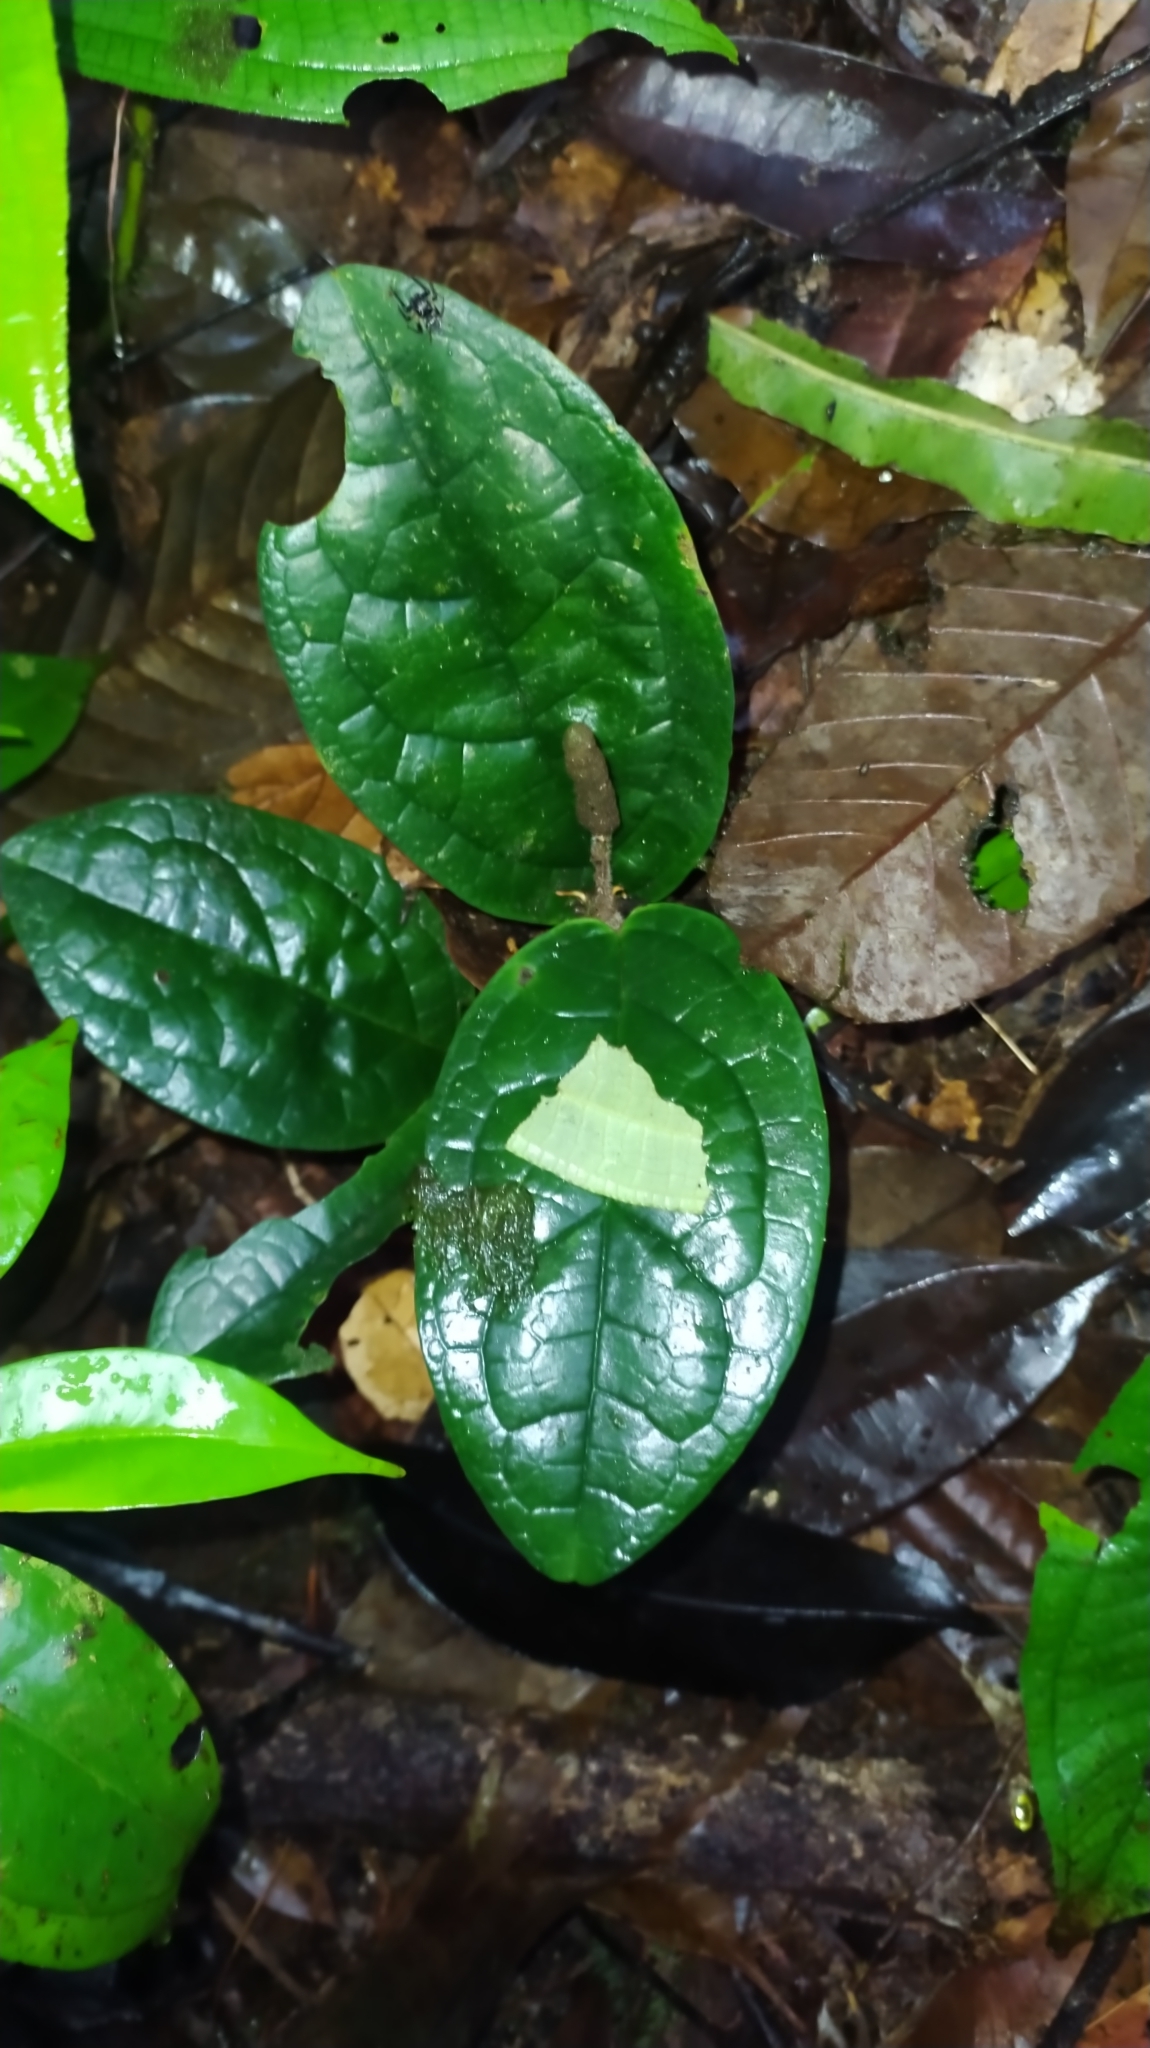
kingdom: Plantae
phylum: Tracheophyta
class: Magnoliopsida
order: Piperales
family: Piperaceae
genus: Piper
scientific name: Piper humistratum
